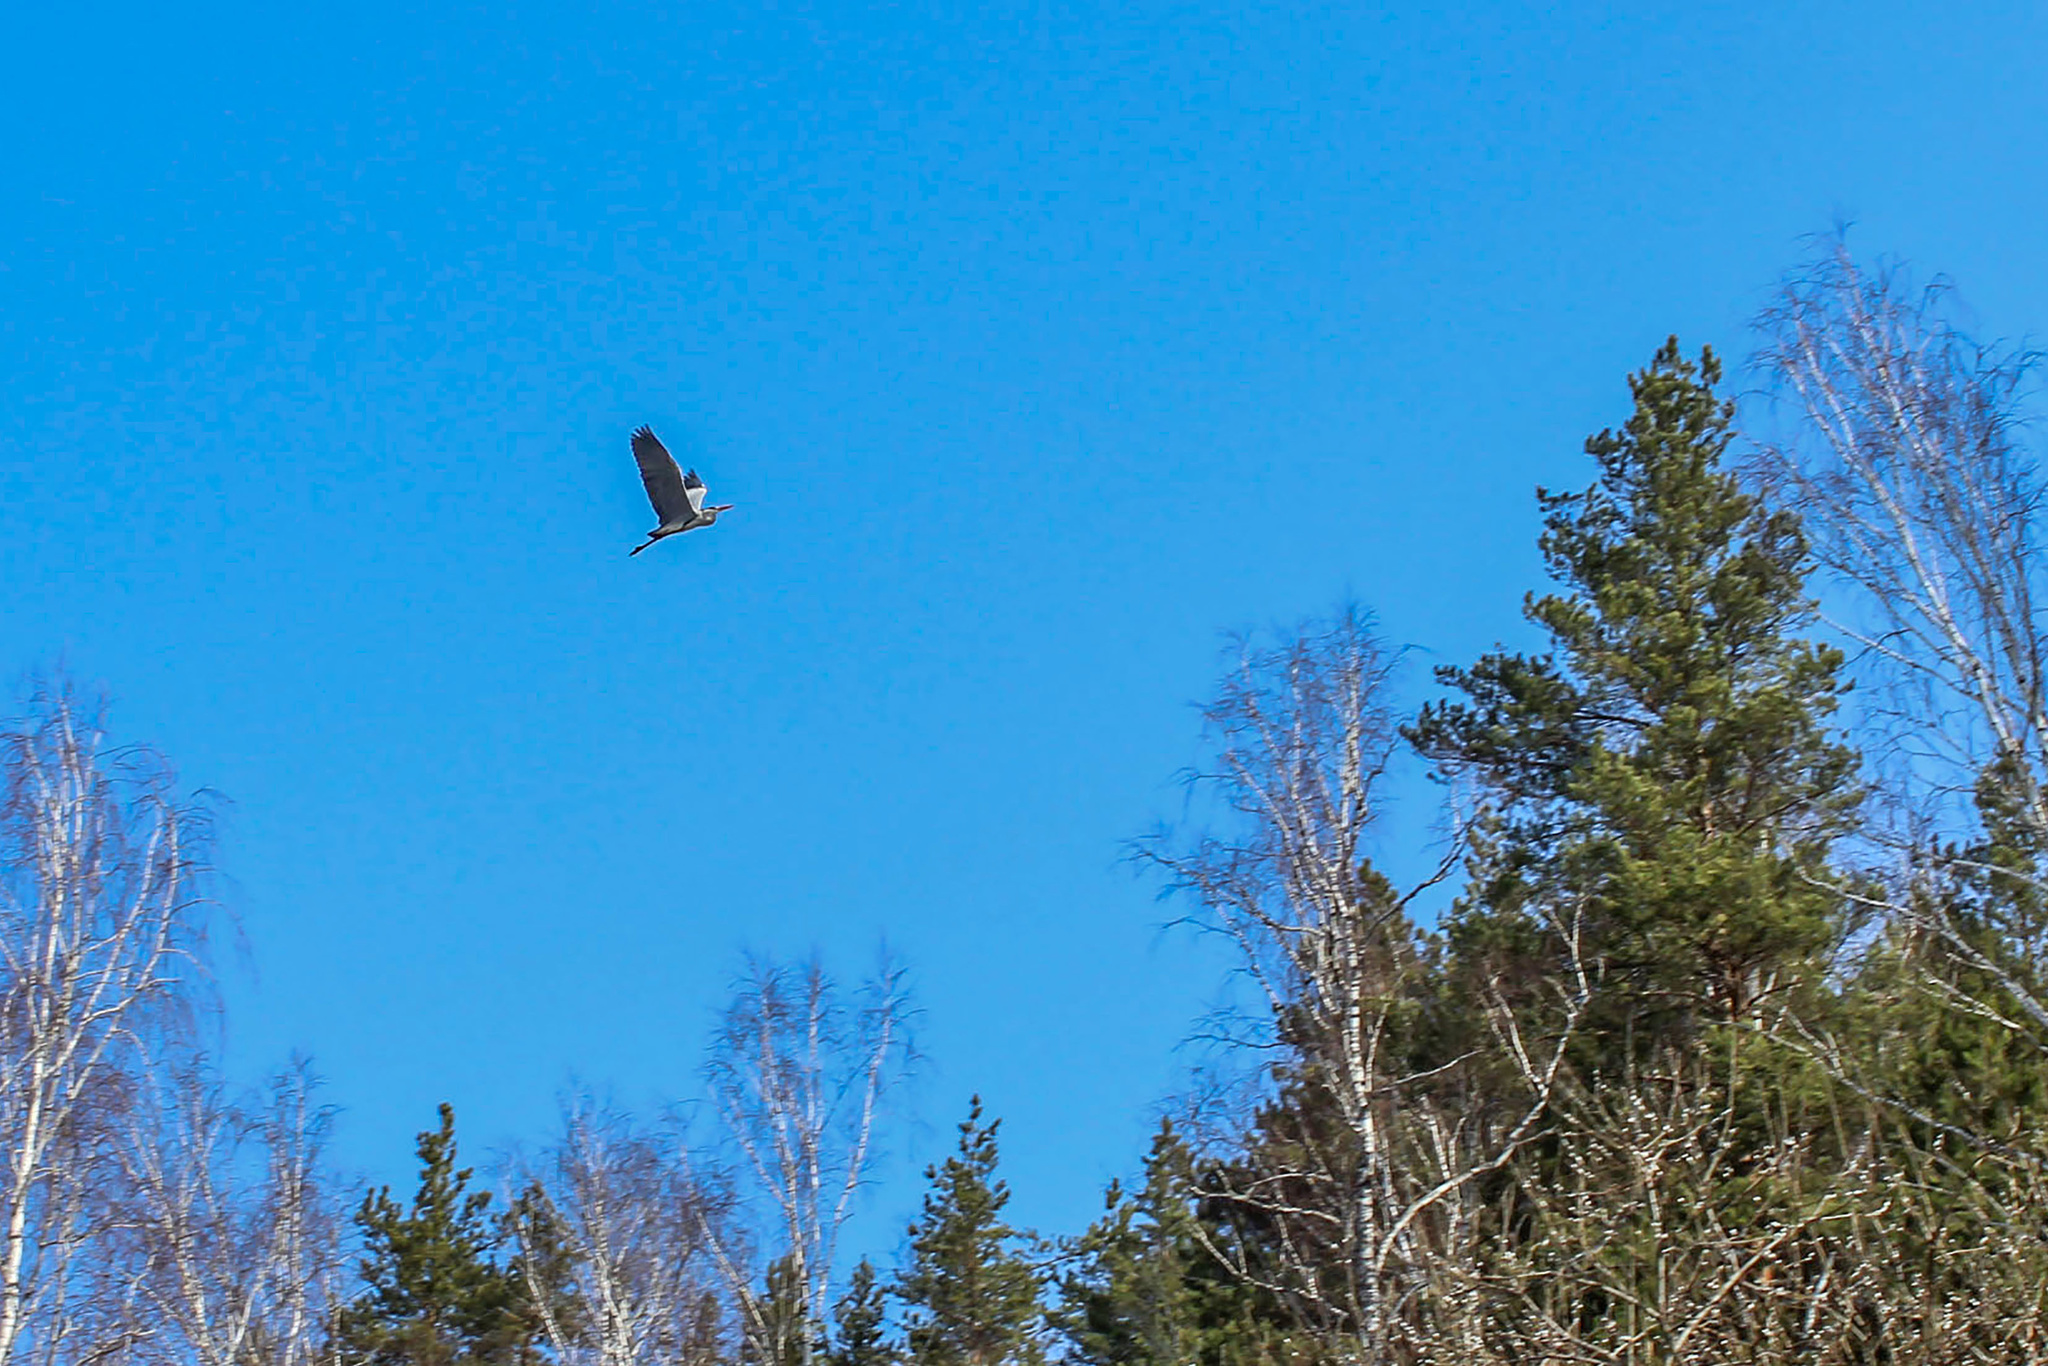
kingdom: Animalia
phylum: Chordata
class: Aves
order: Pelecaniformes
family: Ardeidae
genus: Ardea
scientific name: Ardea cinerea
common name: Grey heron
